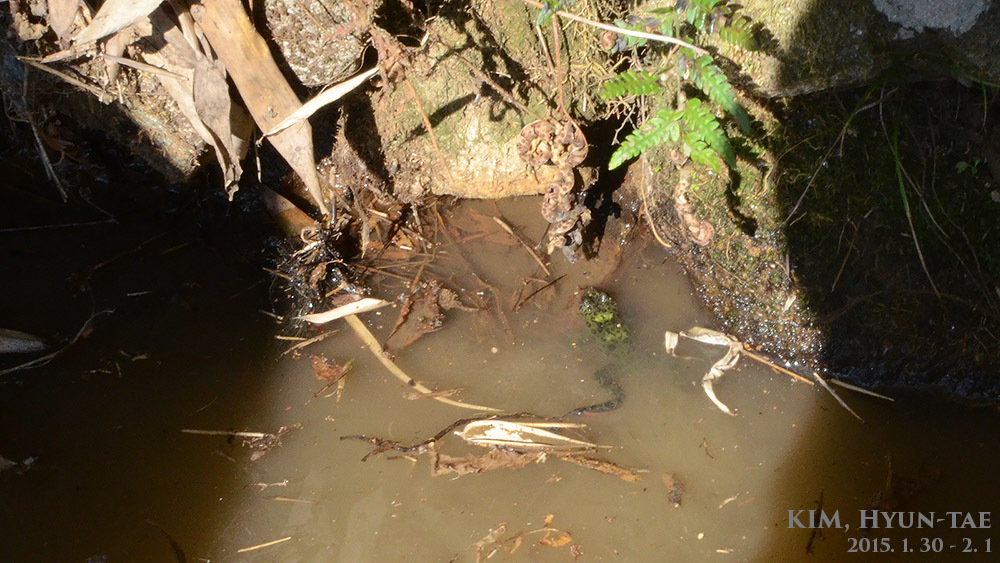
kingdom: Animalia
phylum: Chordata
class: Amphibia
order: Anura
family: Bombinatoridae
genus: Bombina
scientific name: Bombina orientalis
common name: Oriental firebelly toad
